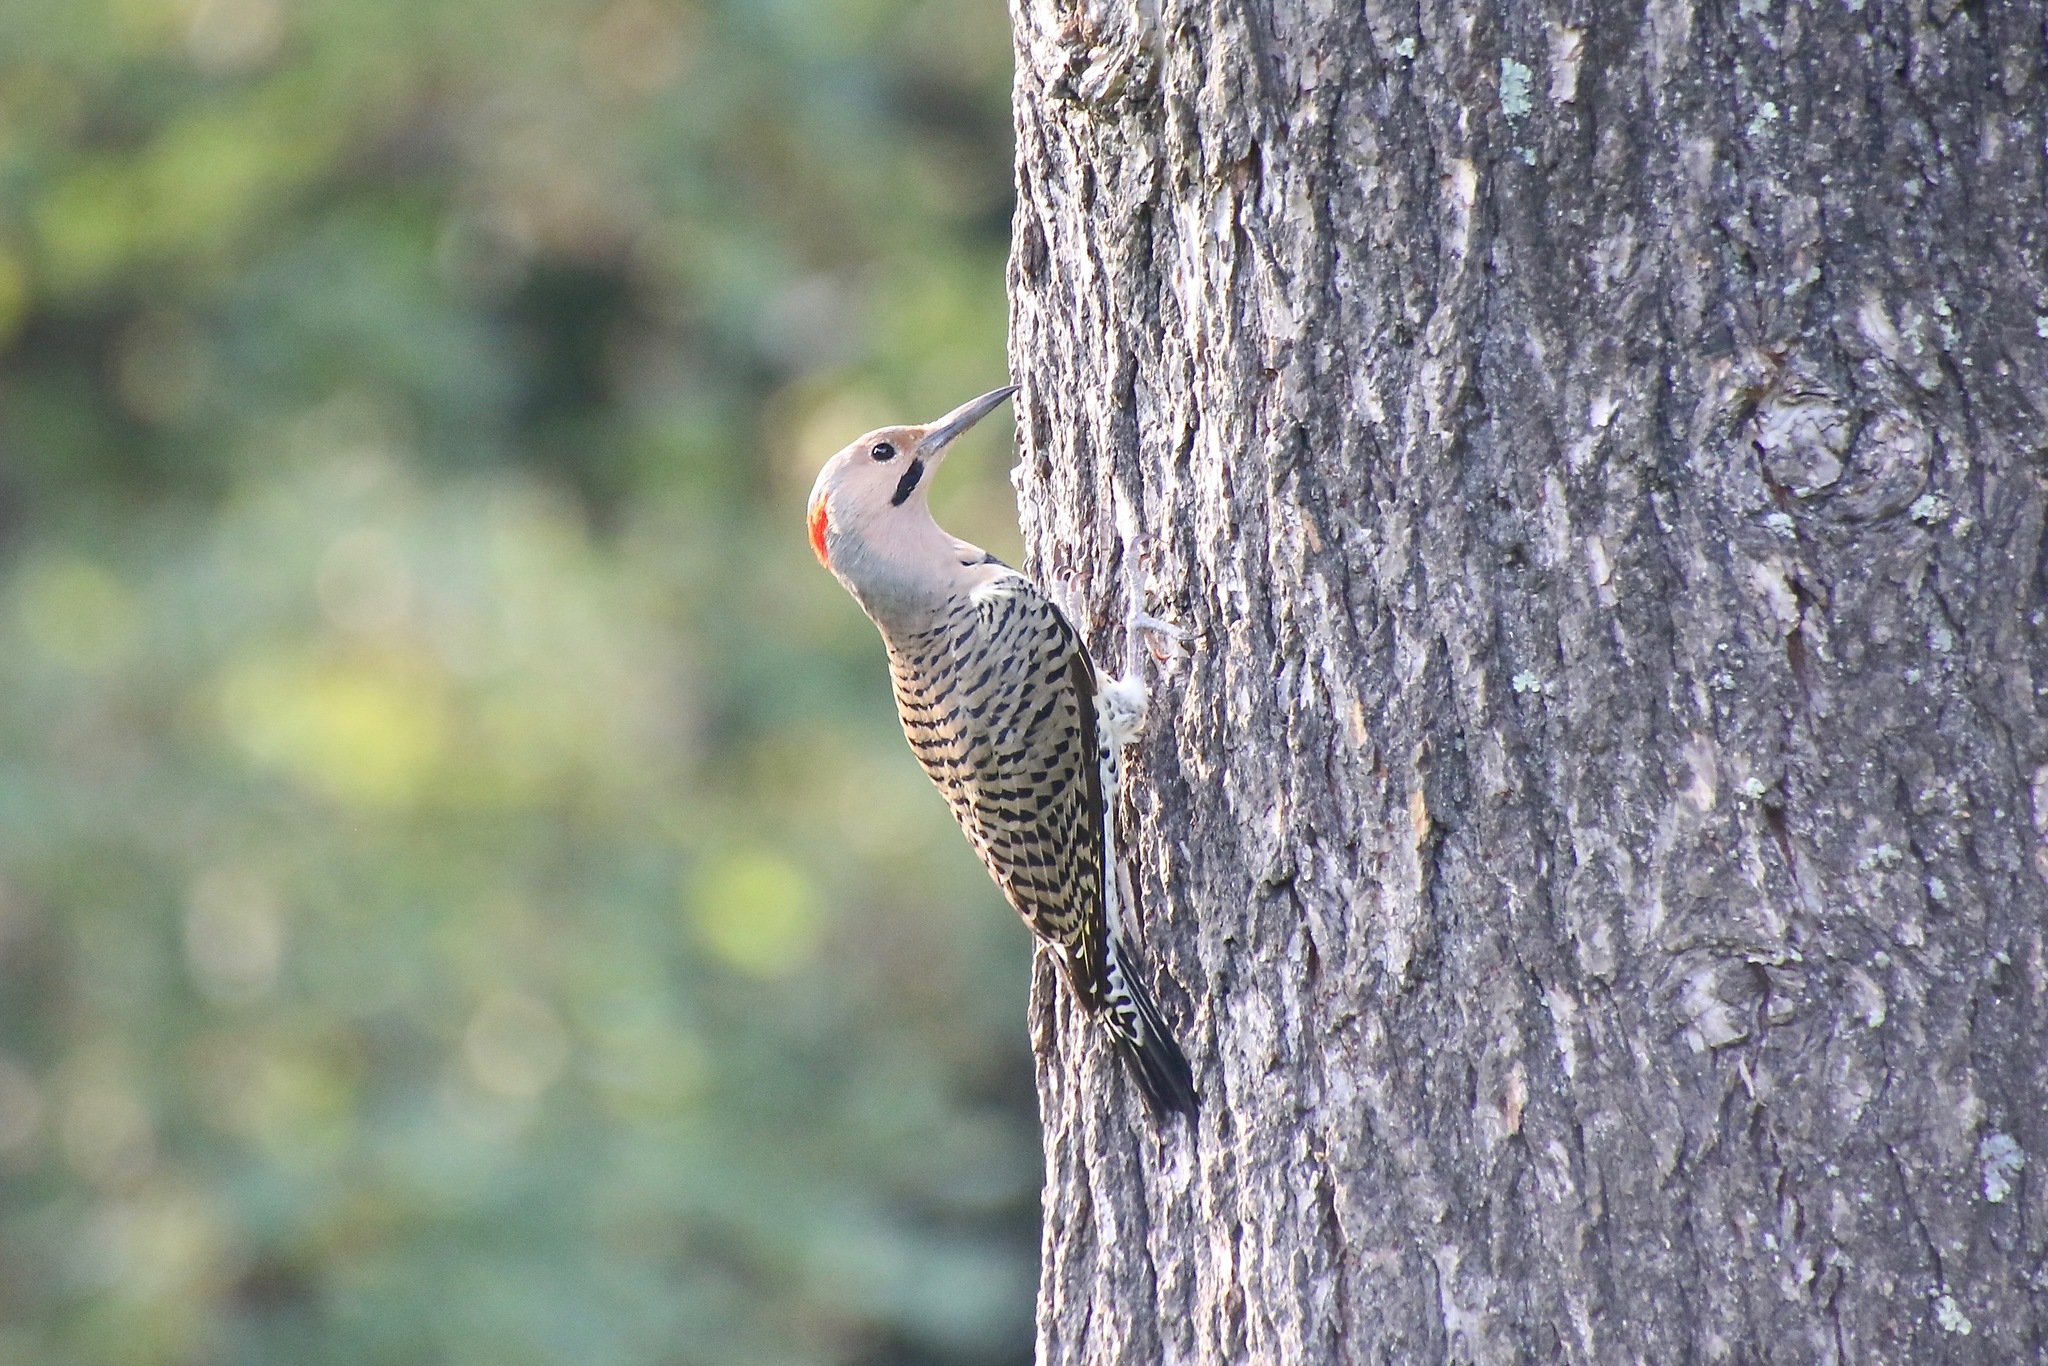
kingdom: Animalia
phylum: Chordata
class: Aves
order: Piciformes
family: Picidae
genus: Colaptes
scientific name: Colaptes auratus
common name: Northern flicker
